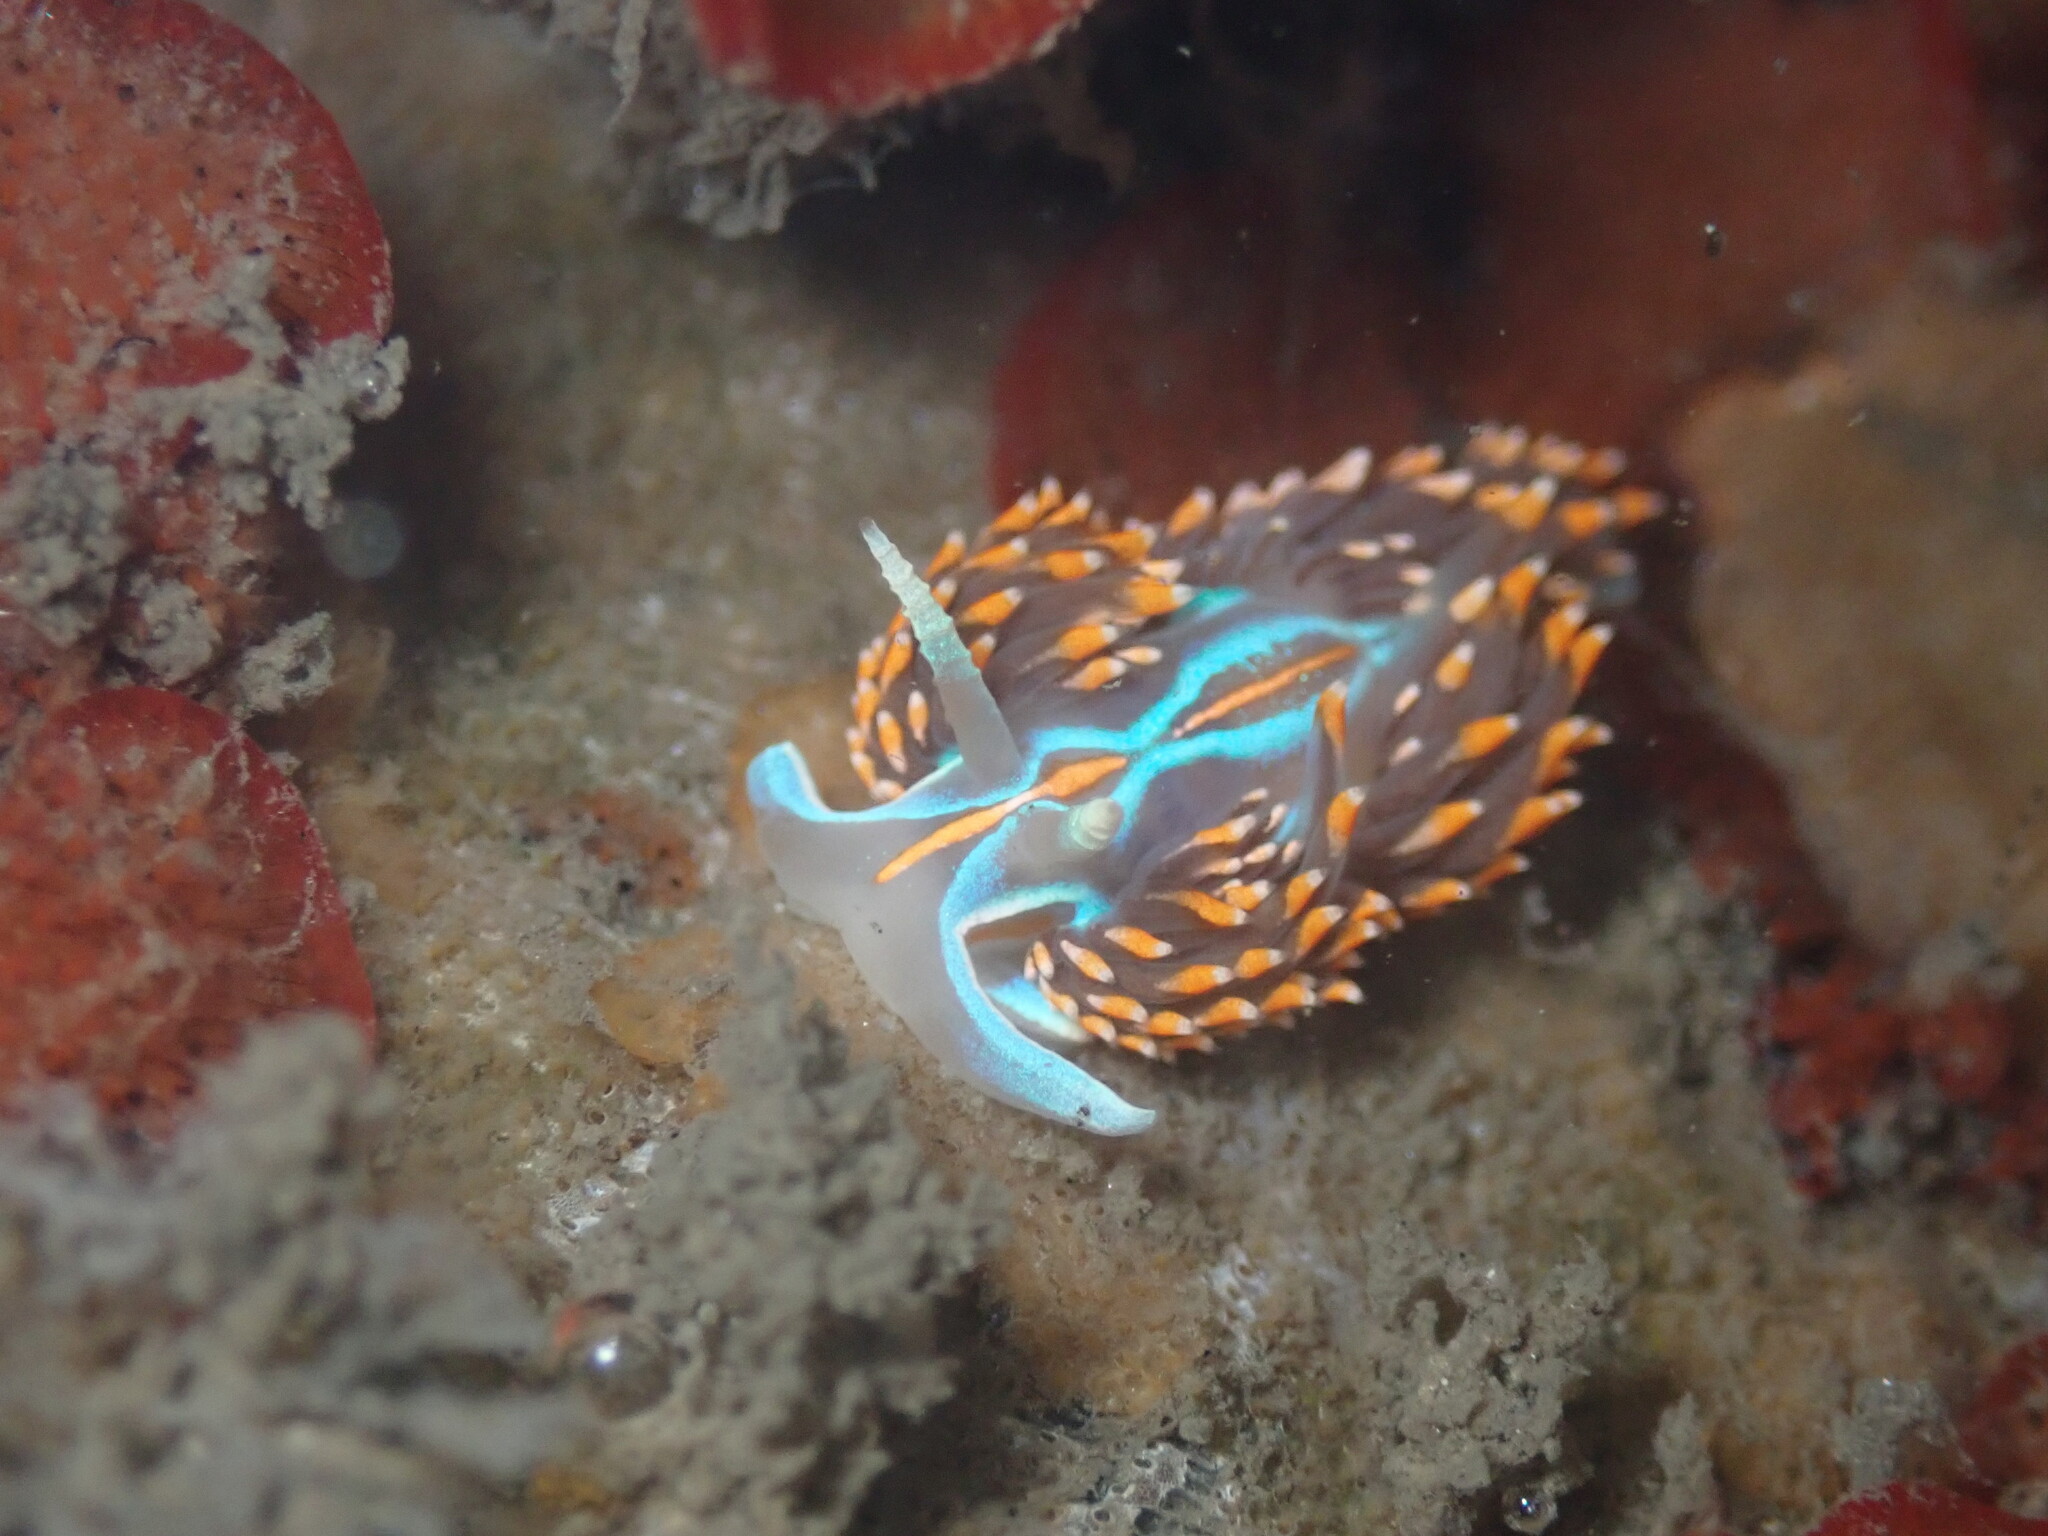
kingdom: Animalia
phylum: Mollusca
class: Gastropoda
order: Nudibranchia
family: Myrrhinidae
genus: Hermissenda
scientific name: Hermissenda opalescens
